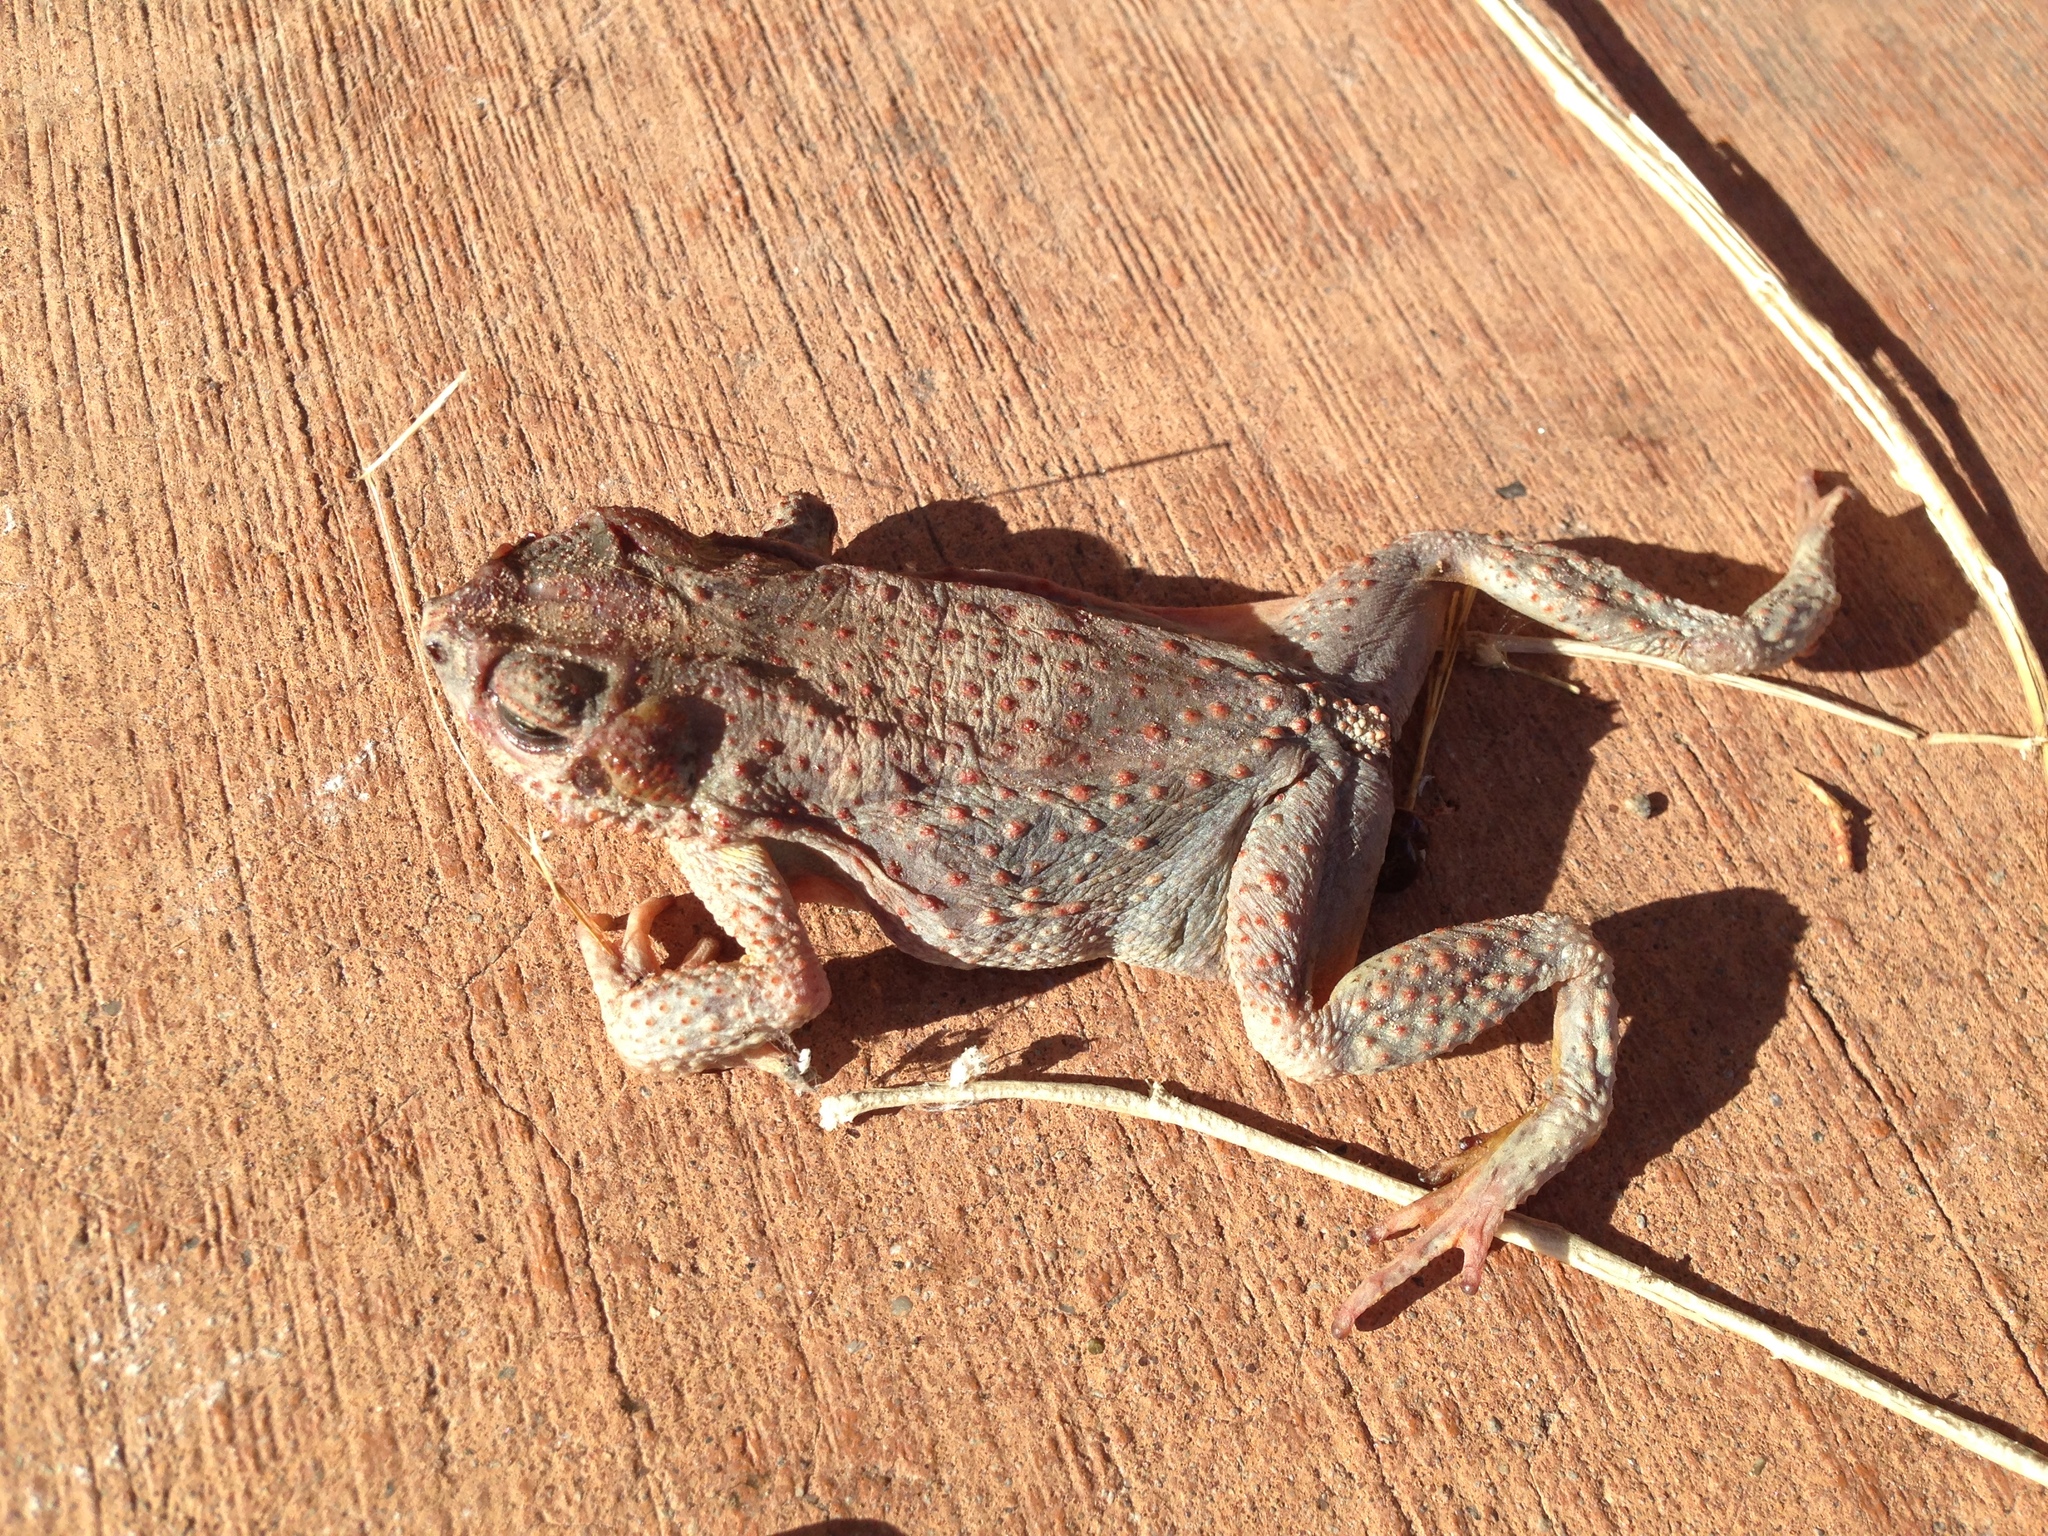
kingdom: Animalia
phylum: Chordata
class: Amphibia
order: Anura
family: Bufonidae
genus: Anaxyrus
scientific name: Anaxyrus punctatus
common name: Red-spotted toad
